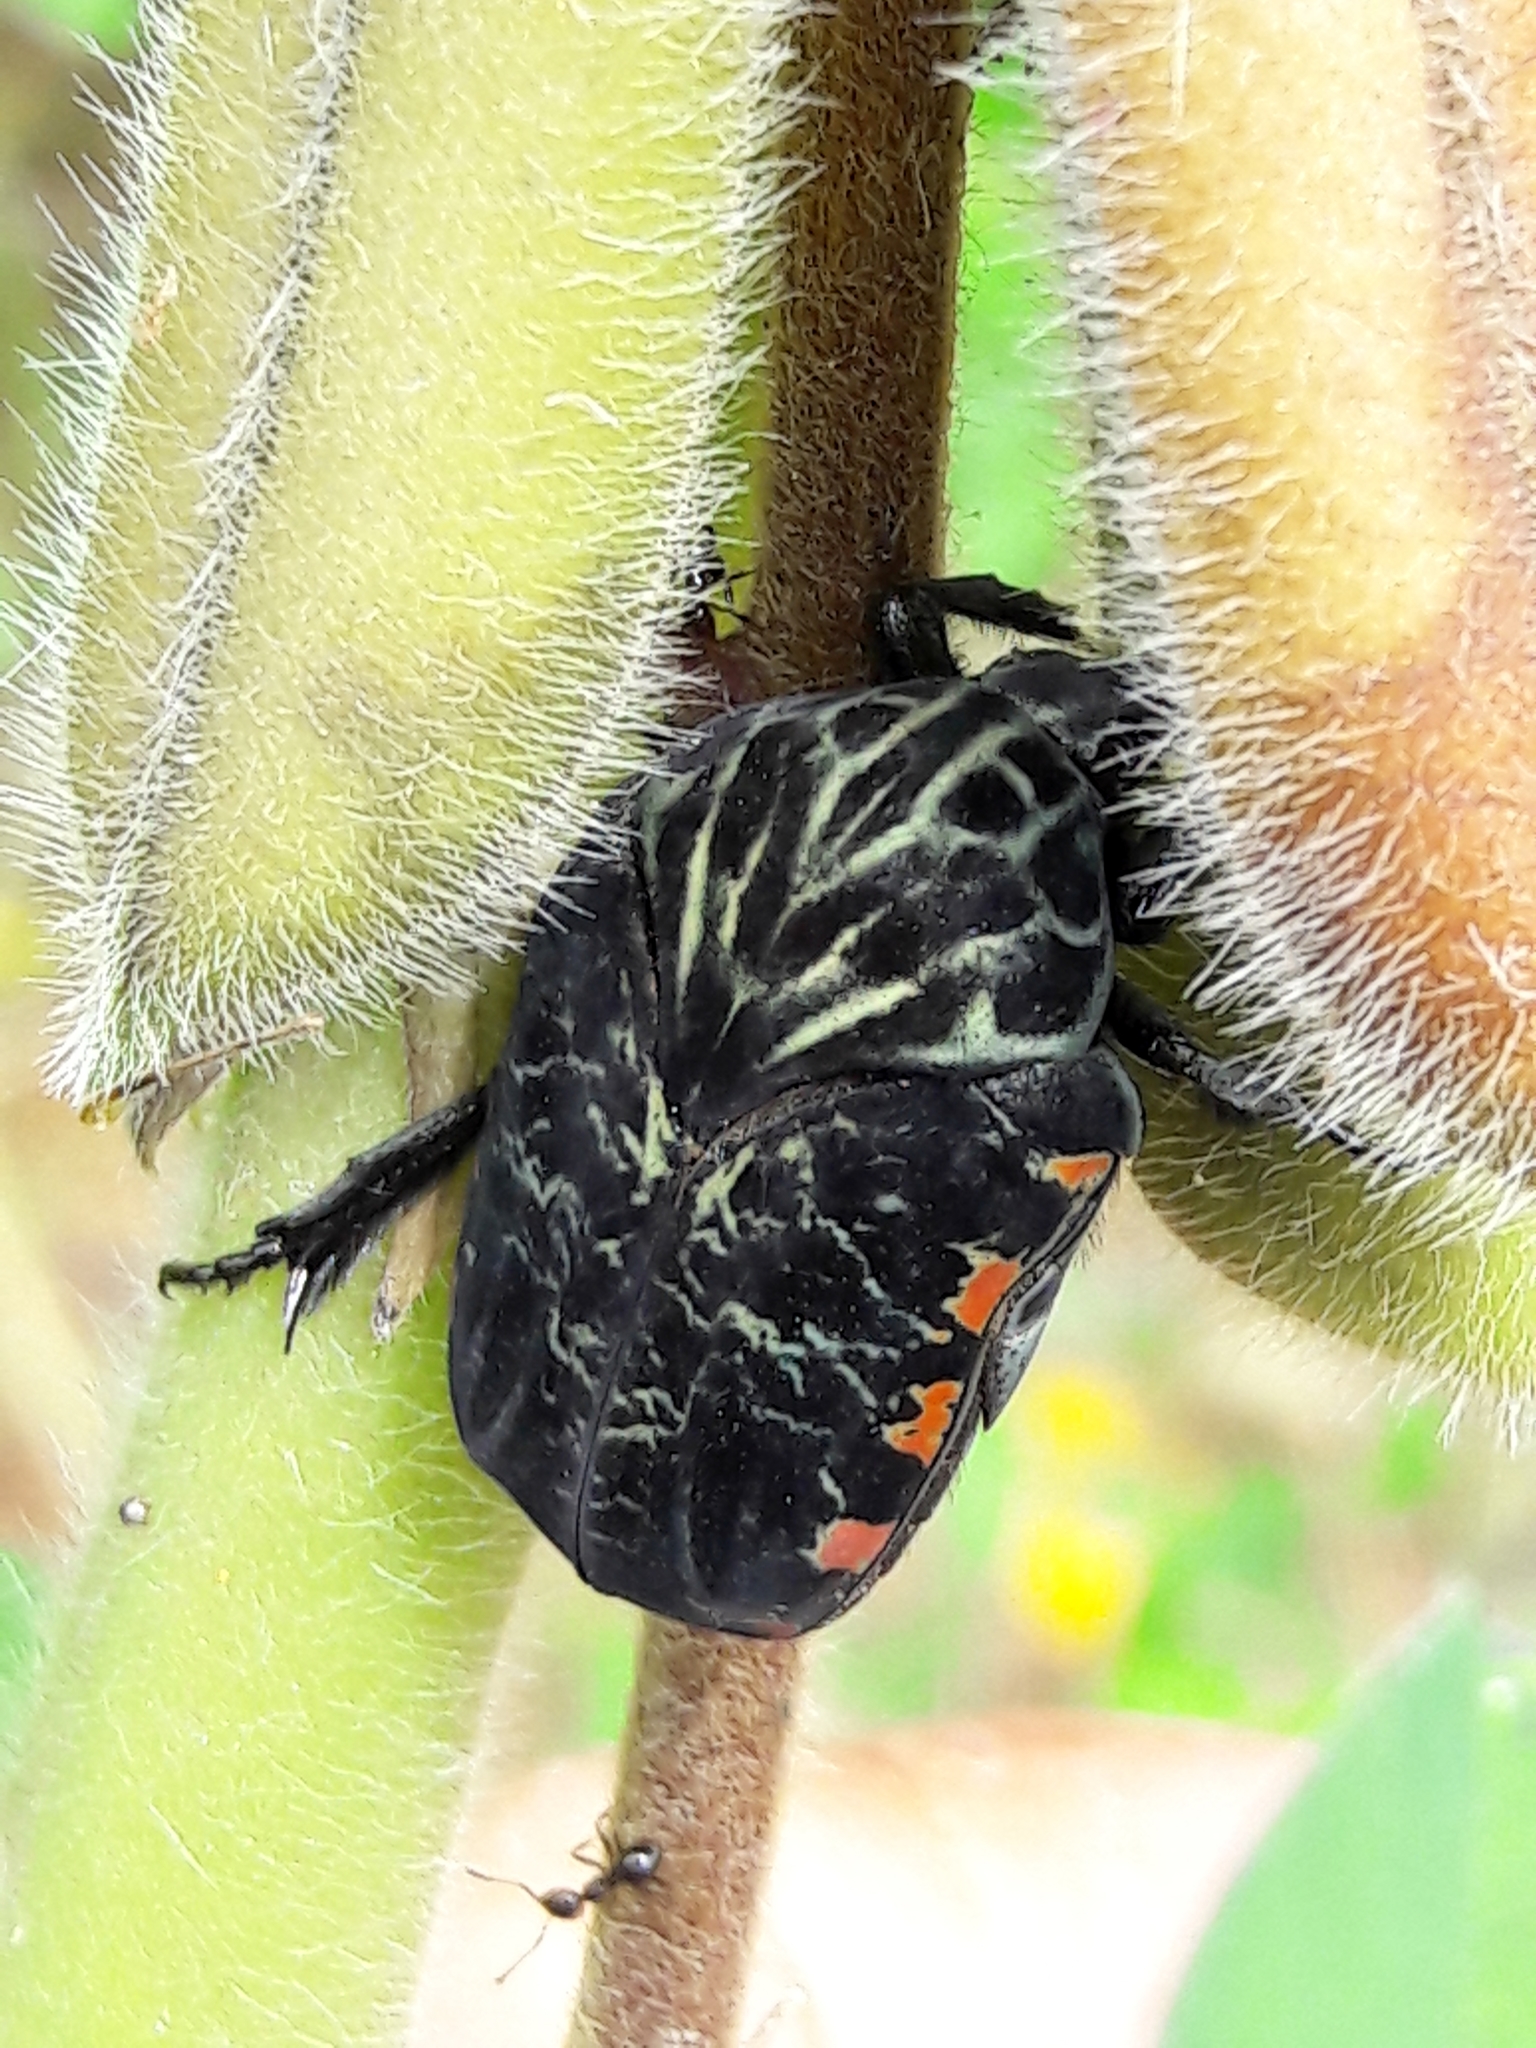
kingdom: Animalia
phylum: Arthropoda
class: Insecta
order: Coleoptera
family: Scarabaeidae
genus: Gymnetis
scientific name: Gymnetis rufilatris
